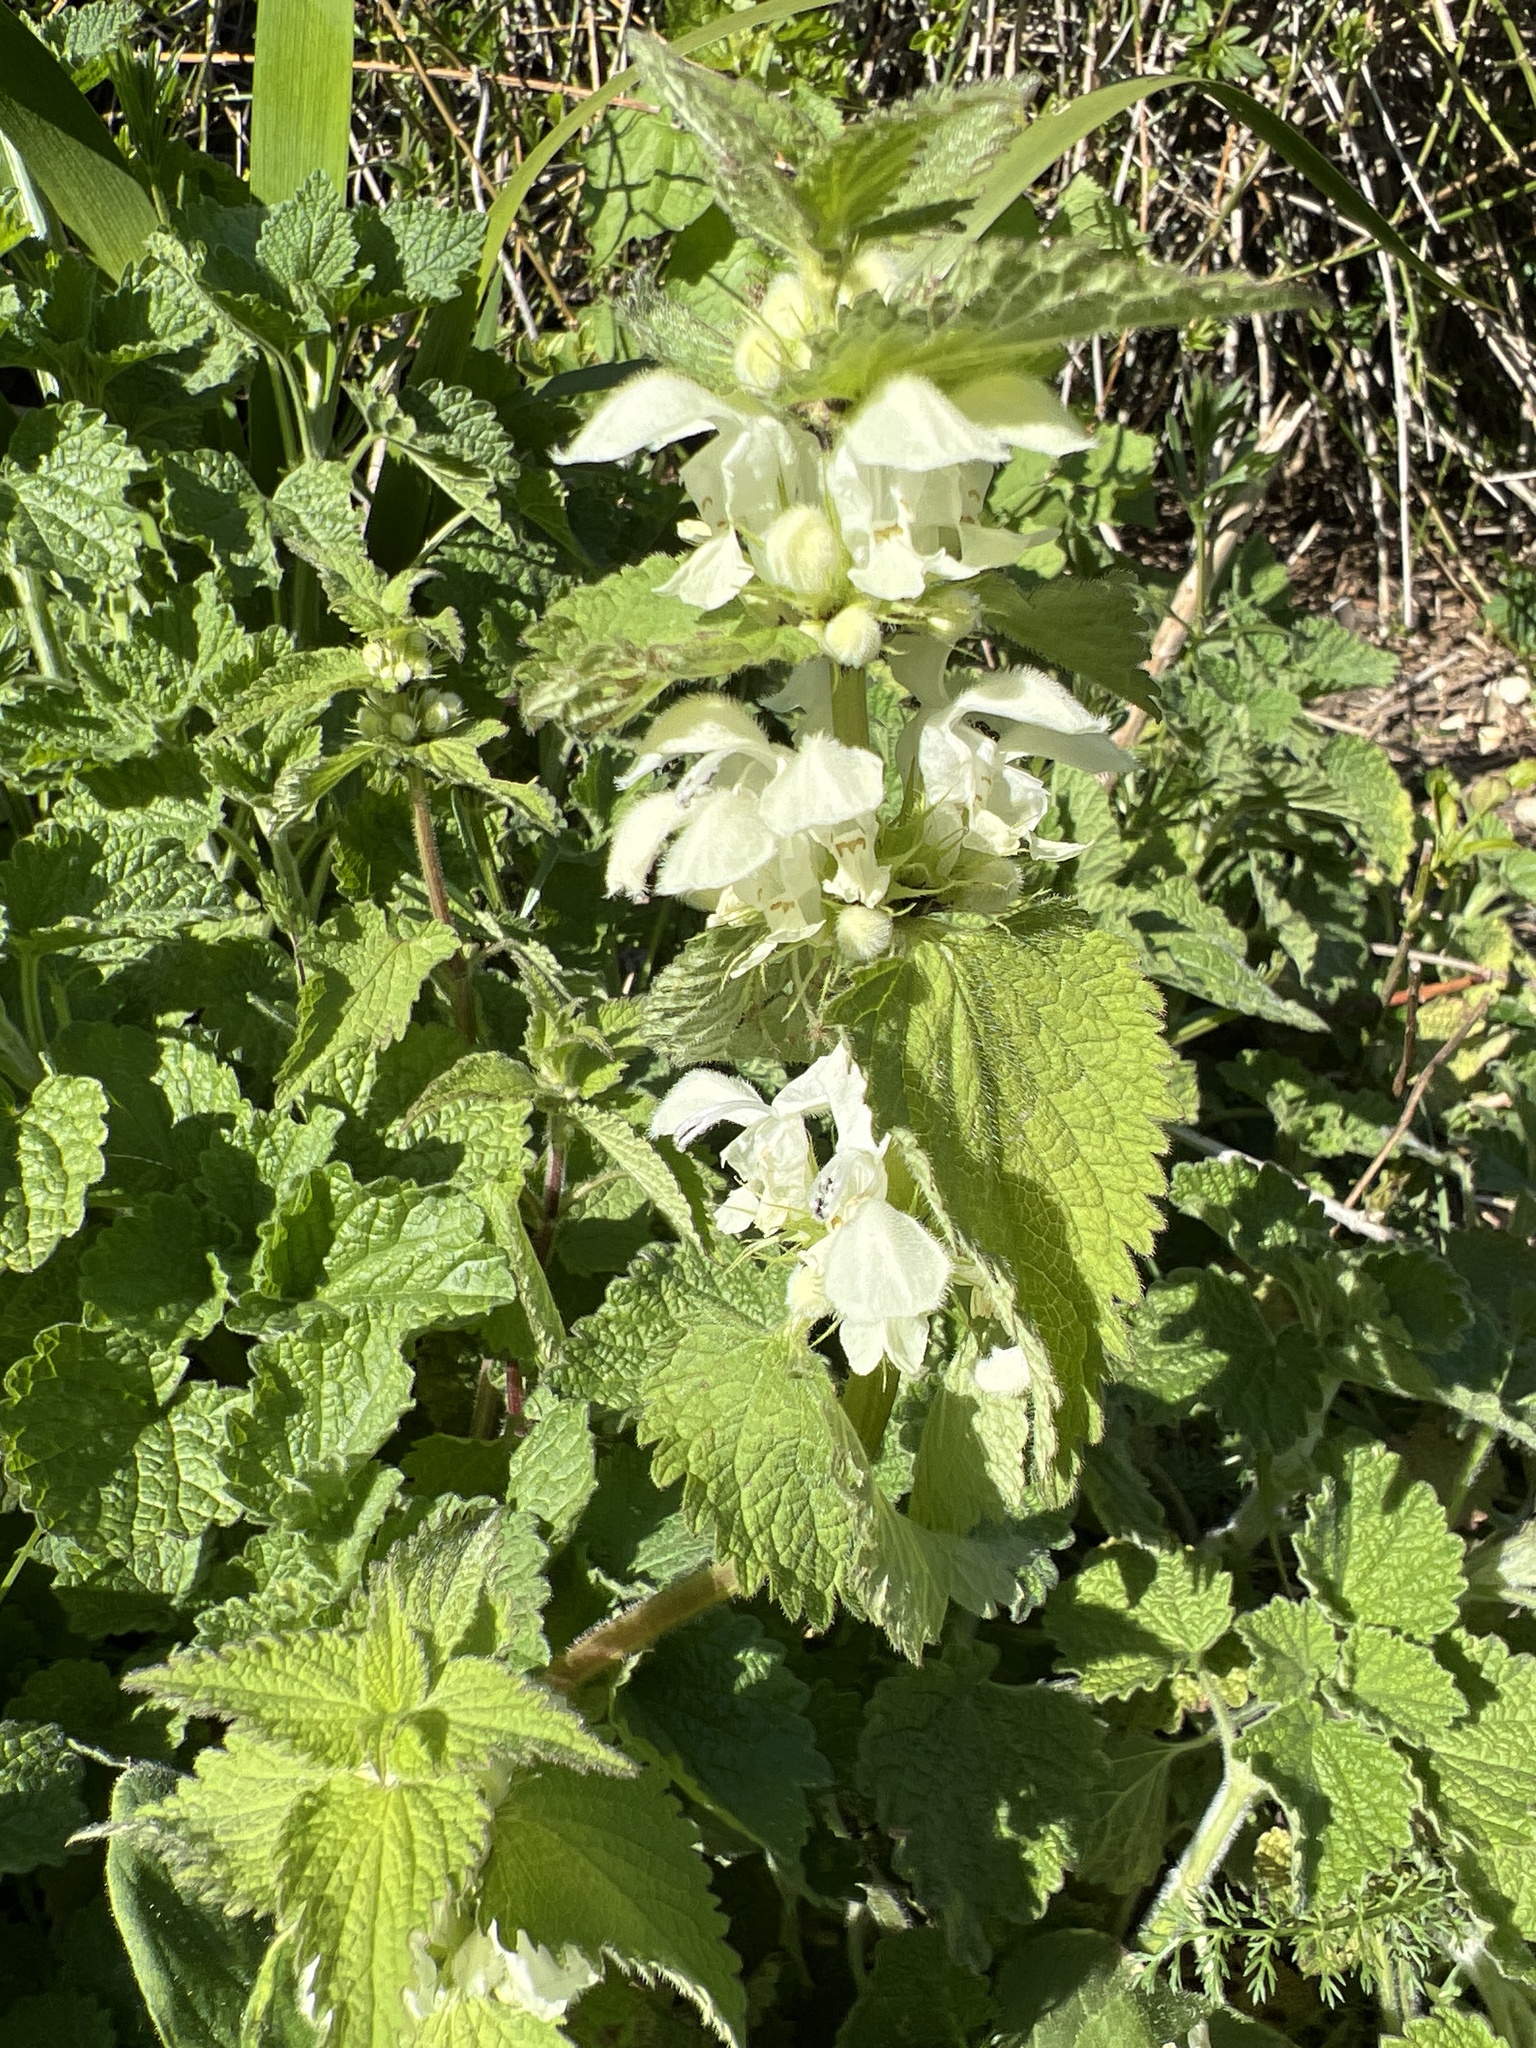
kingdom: Plantae
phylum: Tracheophyta
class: Magnoliopsida
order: Lamiales
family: Lamiaceae
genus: Lamium
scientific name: Lamium album
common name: White dead-nettle
